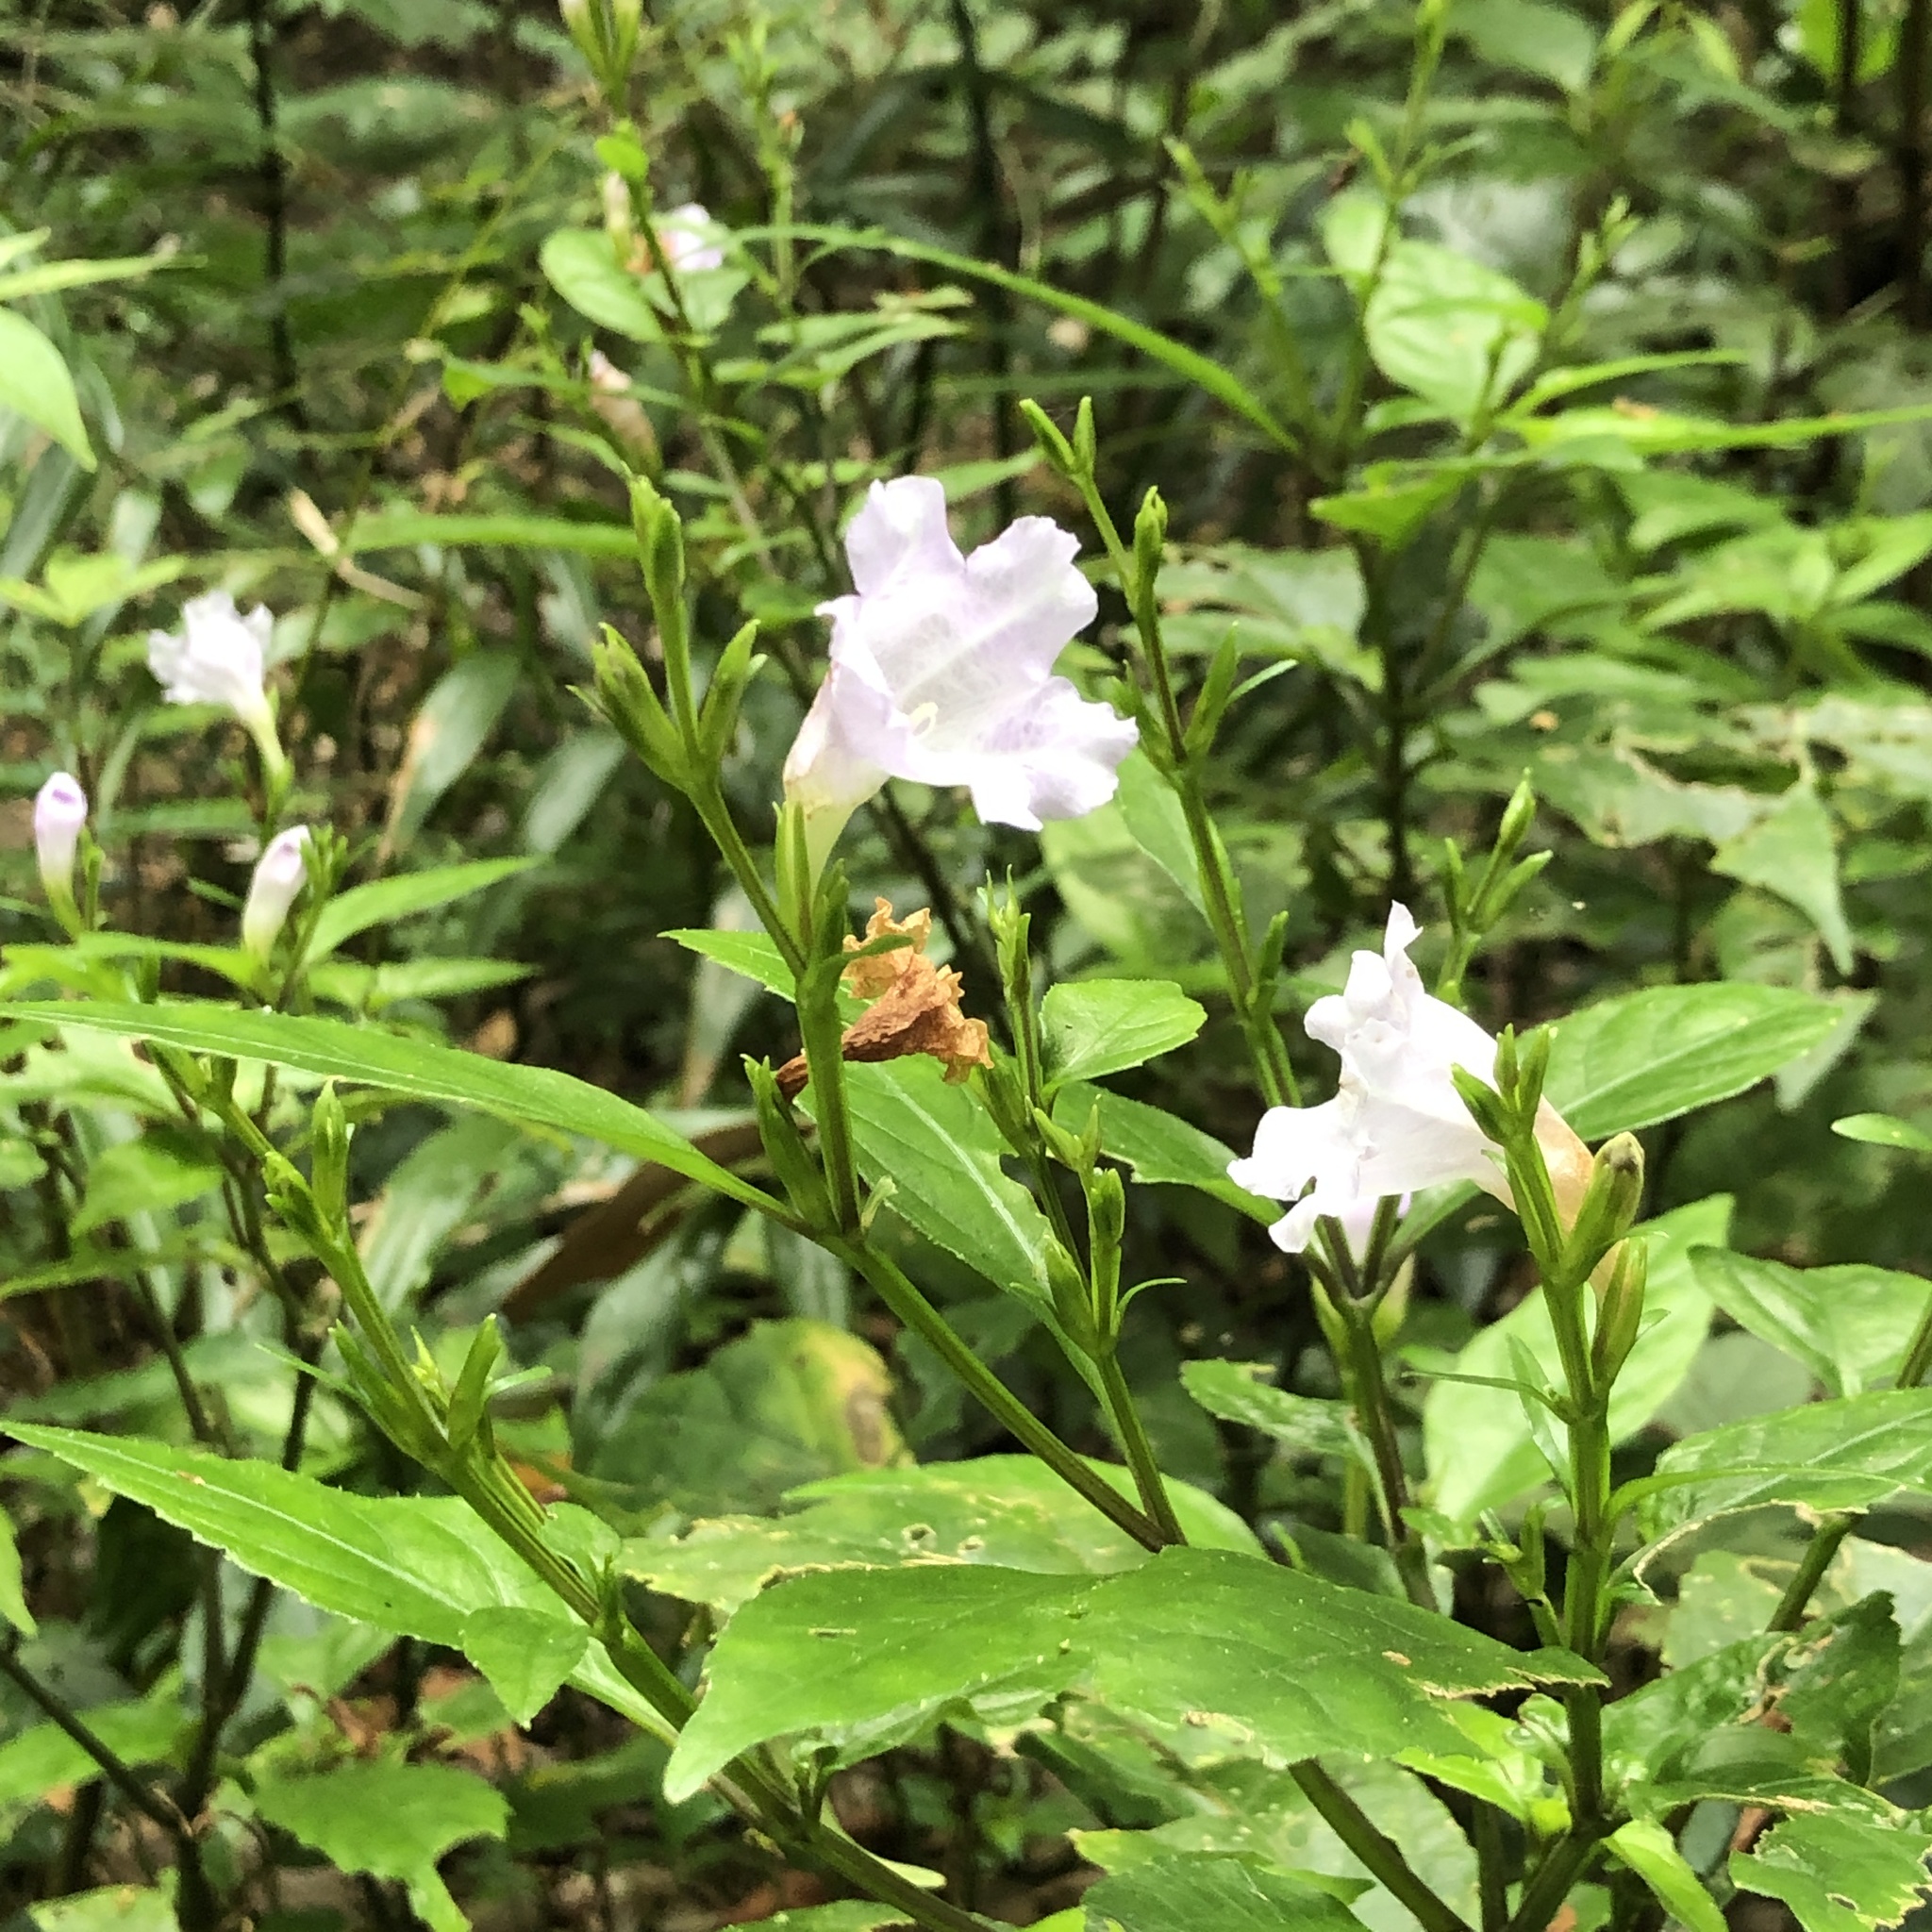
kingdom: Plantae
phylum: Tracheophyta
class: Magnoliopsida
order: Lamiales
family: Acanthaceae
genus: Strobilanthes
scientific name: Strobilanthes flexicaulis
